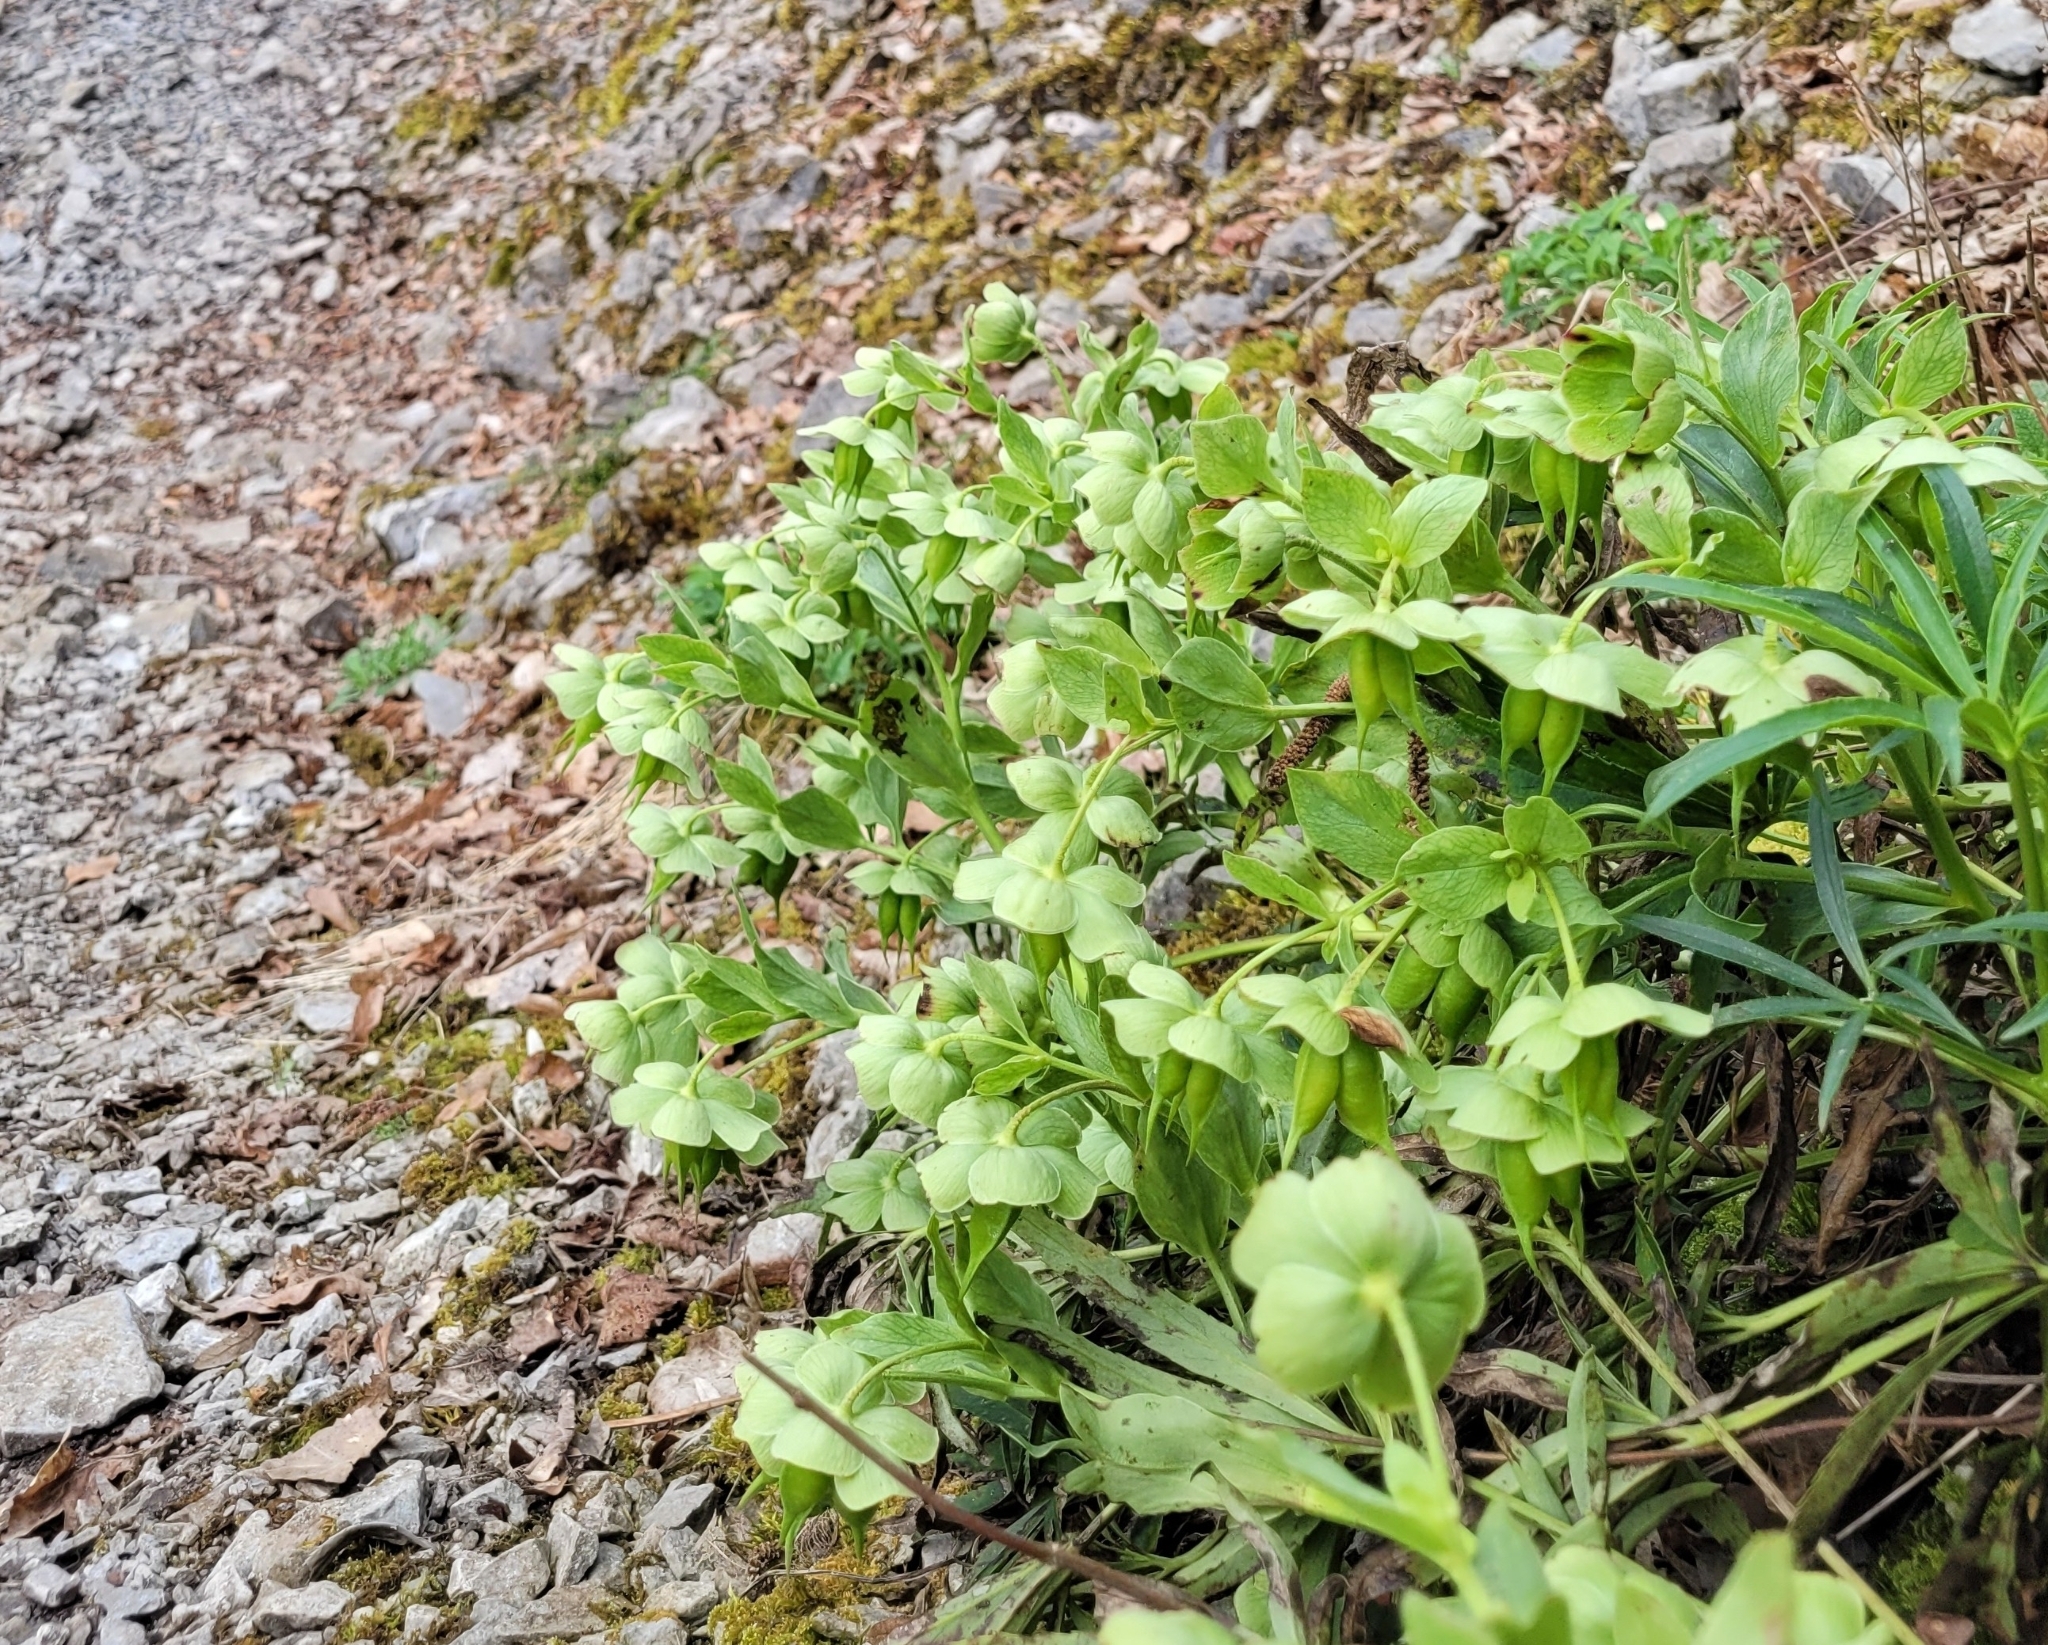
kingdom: Plantae
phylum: Tracheophyta
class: Magnoliopsida
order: Ranunculales
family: Ranunculaceae
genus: Helleborus
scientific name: Helleborus foetidus
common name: Stinking hellebore
